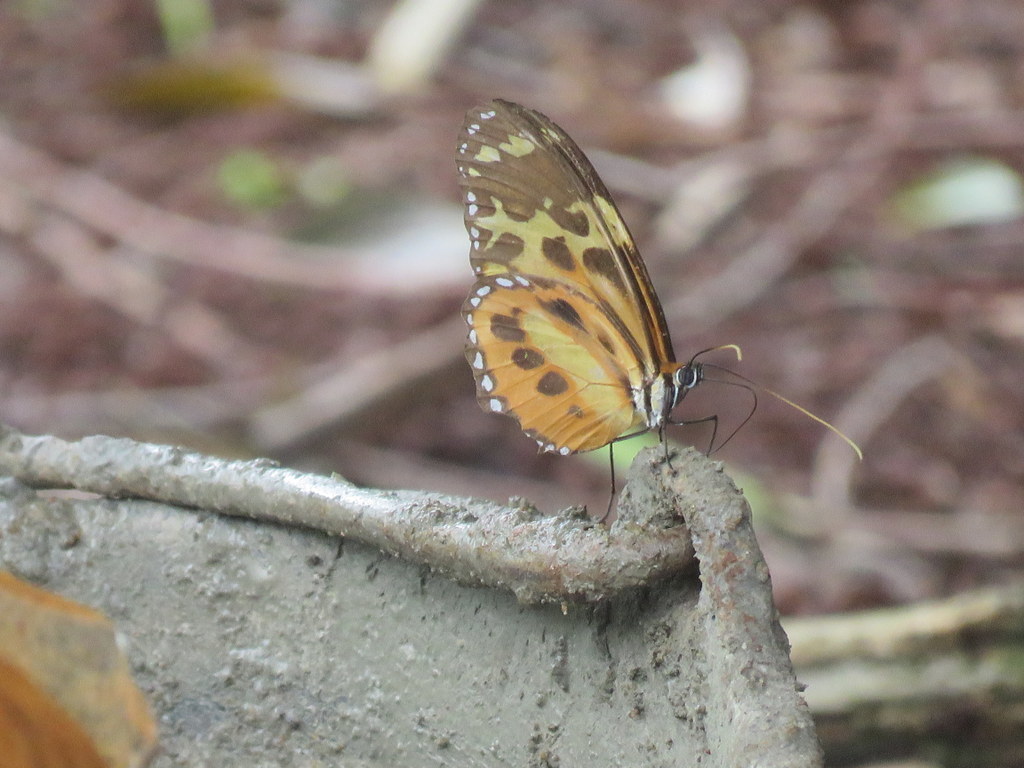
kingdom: Animalia
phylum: Arthropoda
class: Insecta
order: Lepidoptera
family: Nymphalidae
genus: Tithorea
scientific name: Tithorea harmonia
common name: Harmonia tigerwing
